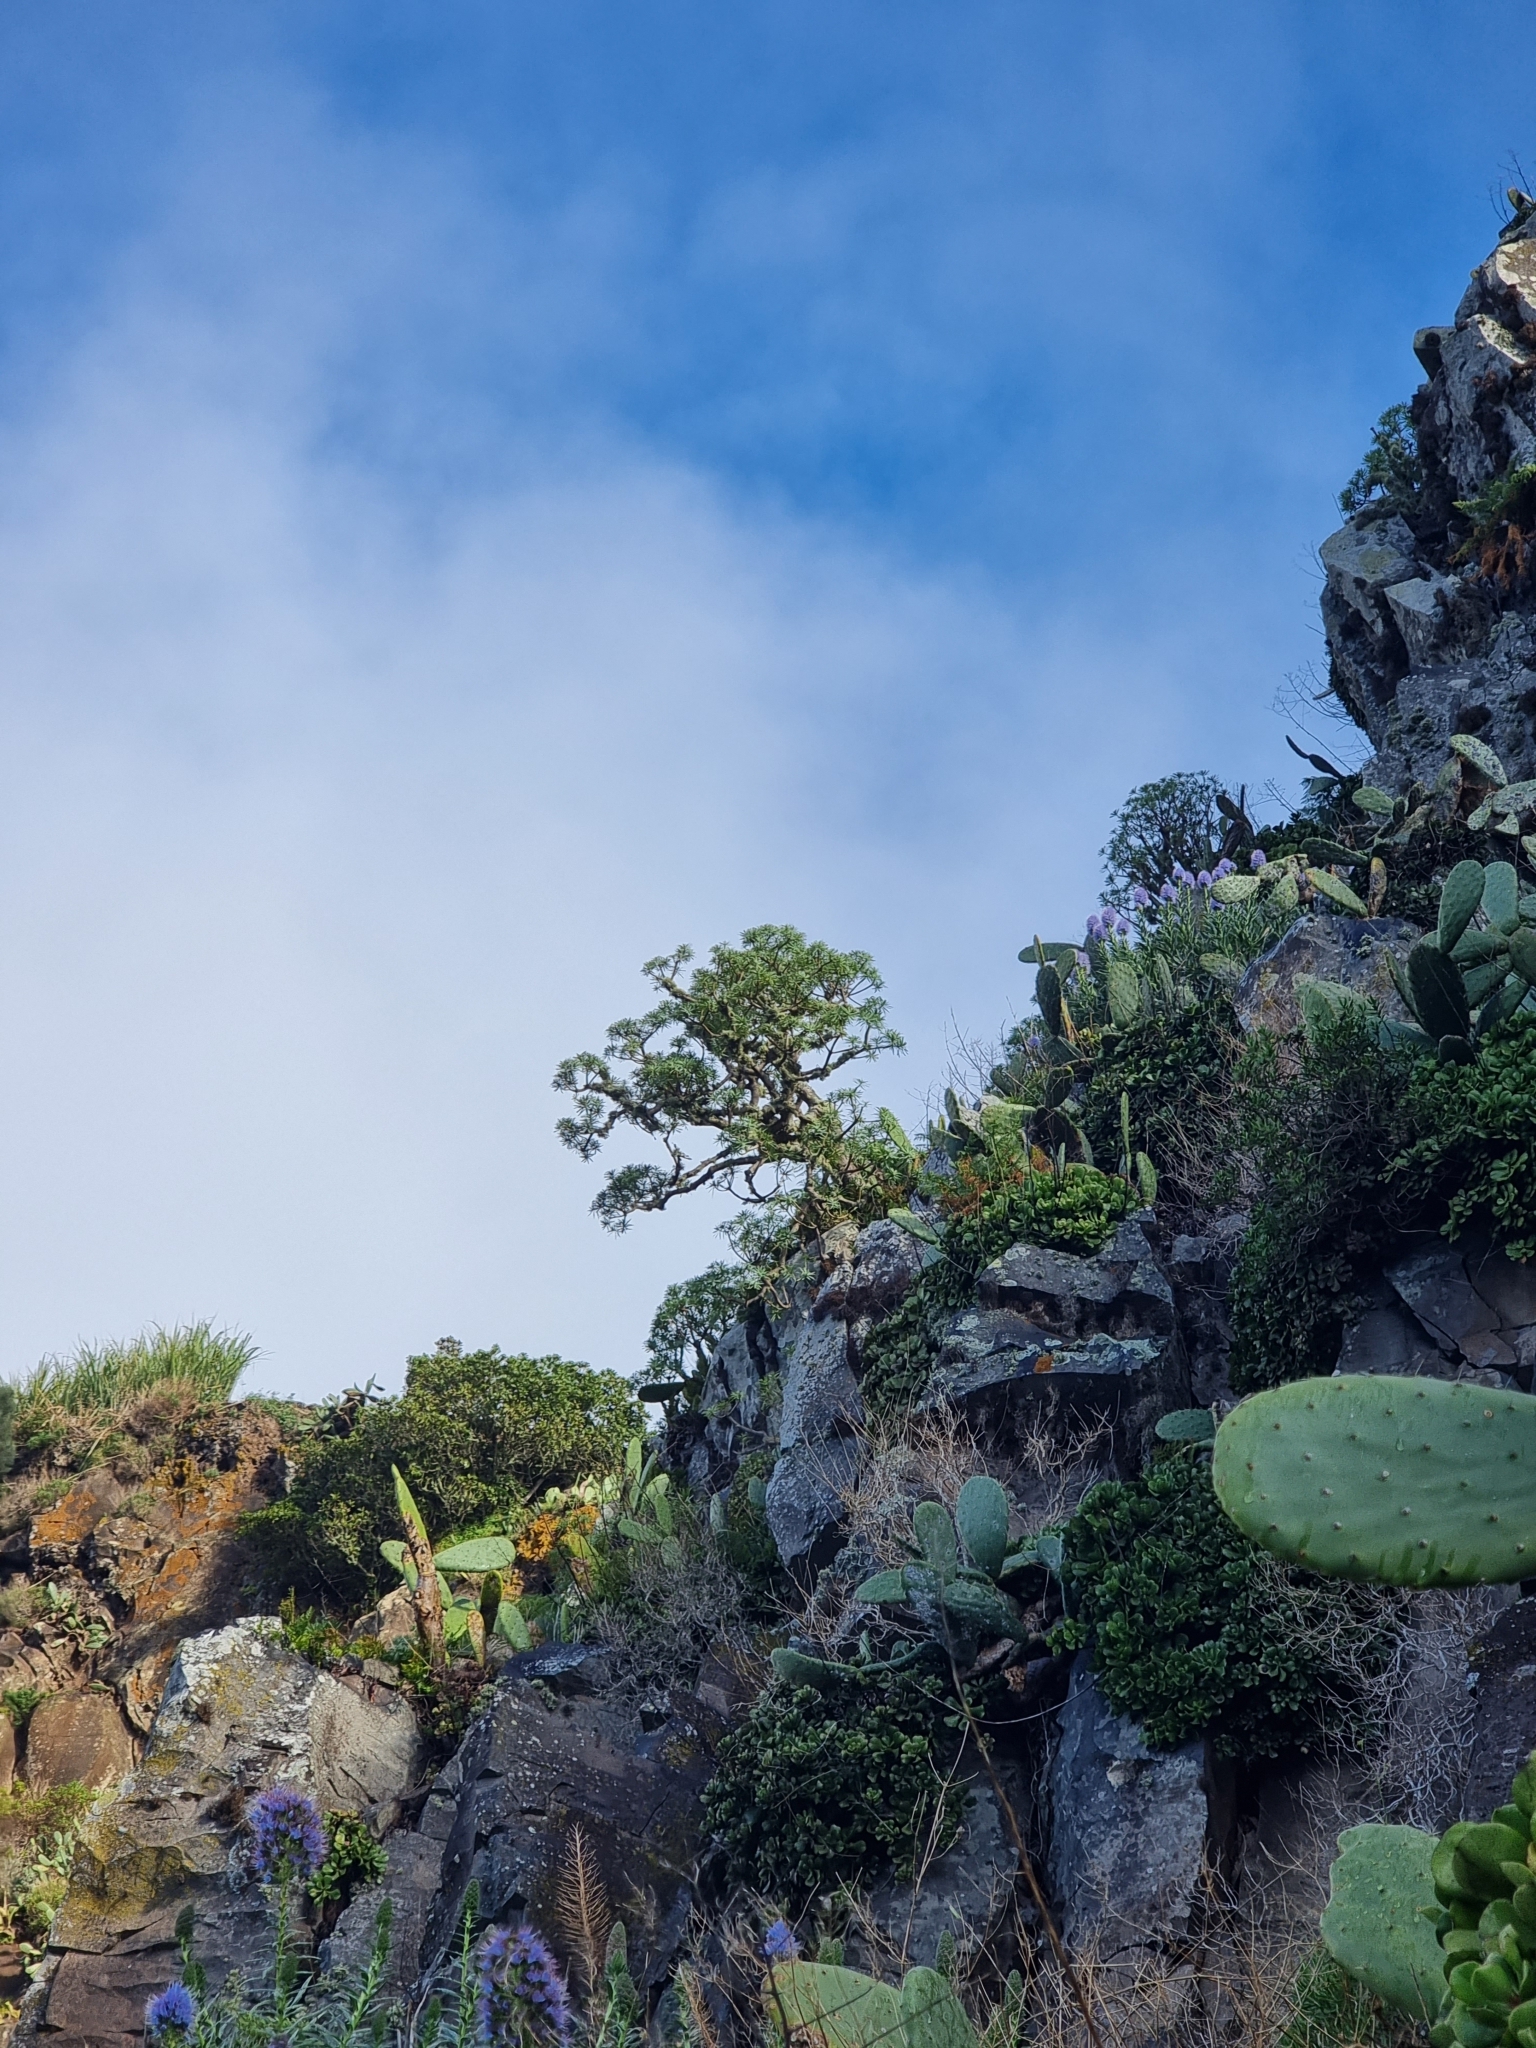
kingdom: Plantae
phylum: Tracheophyta
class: Magnoliopsida
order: Malpighiales
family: Euphorbiaceae
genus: Euphorbia
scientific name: Euphorbia piscatoria
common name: Fish-stunning spurge
